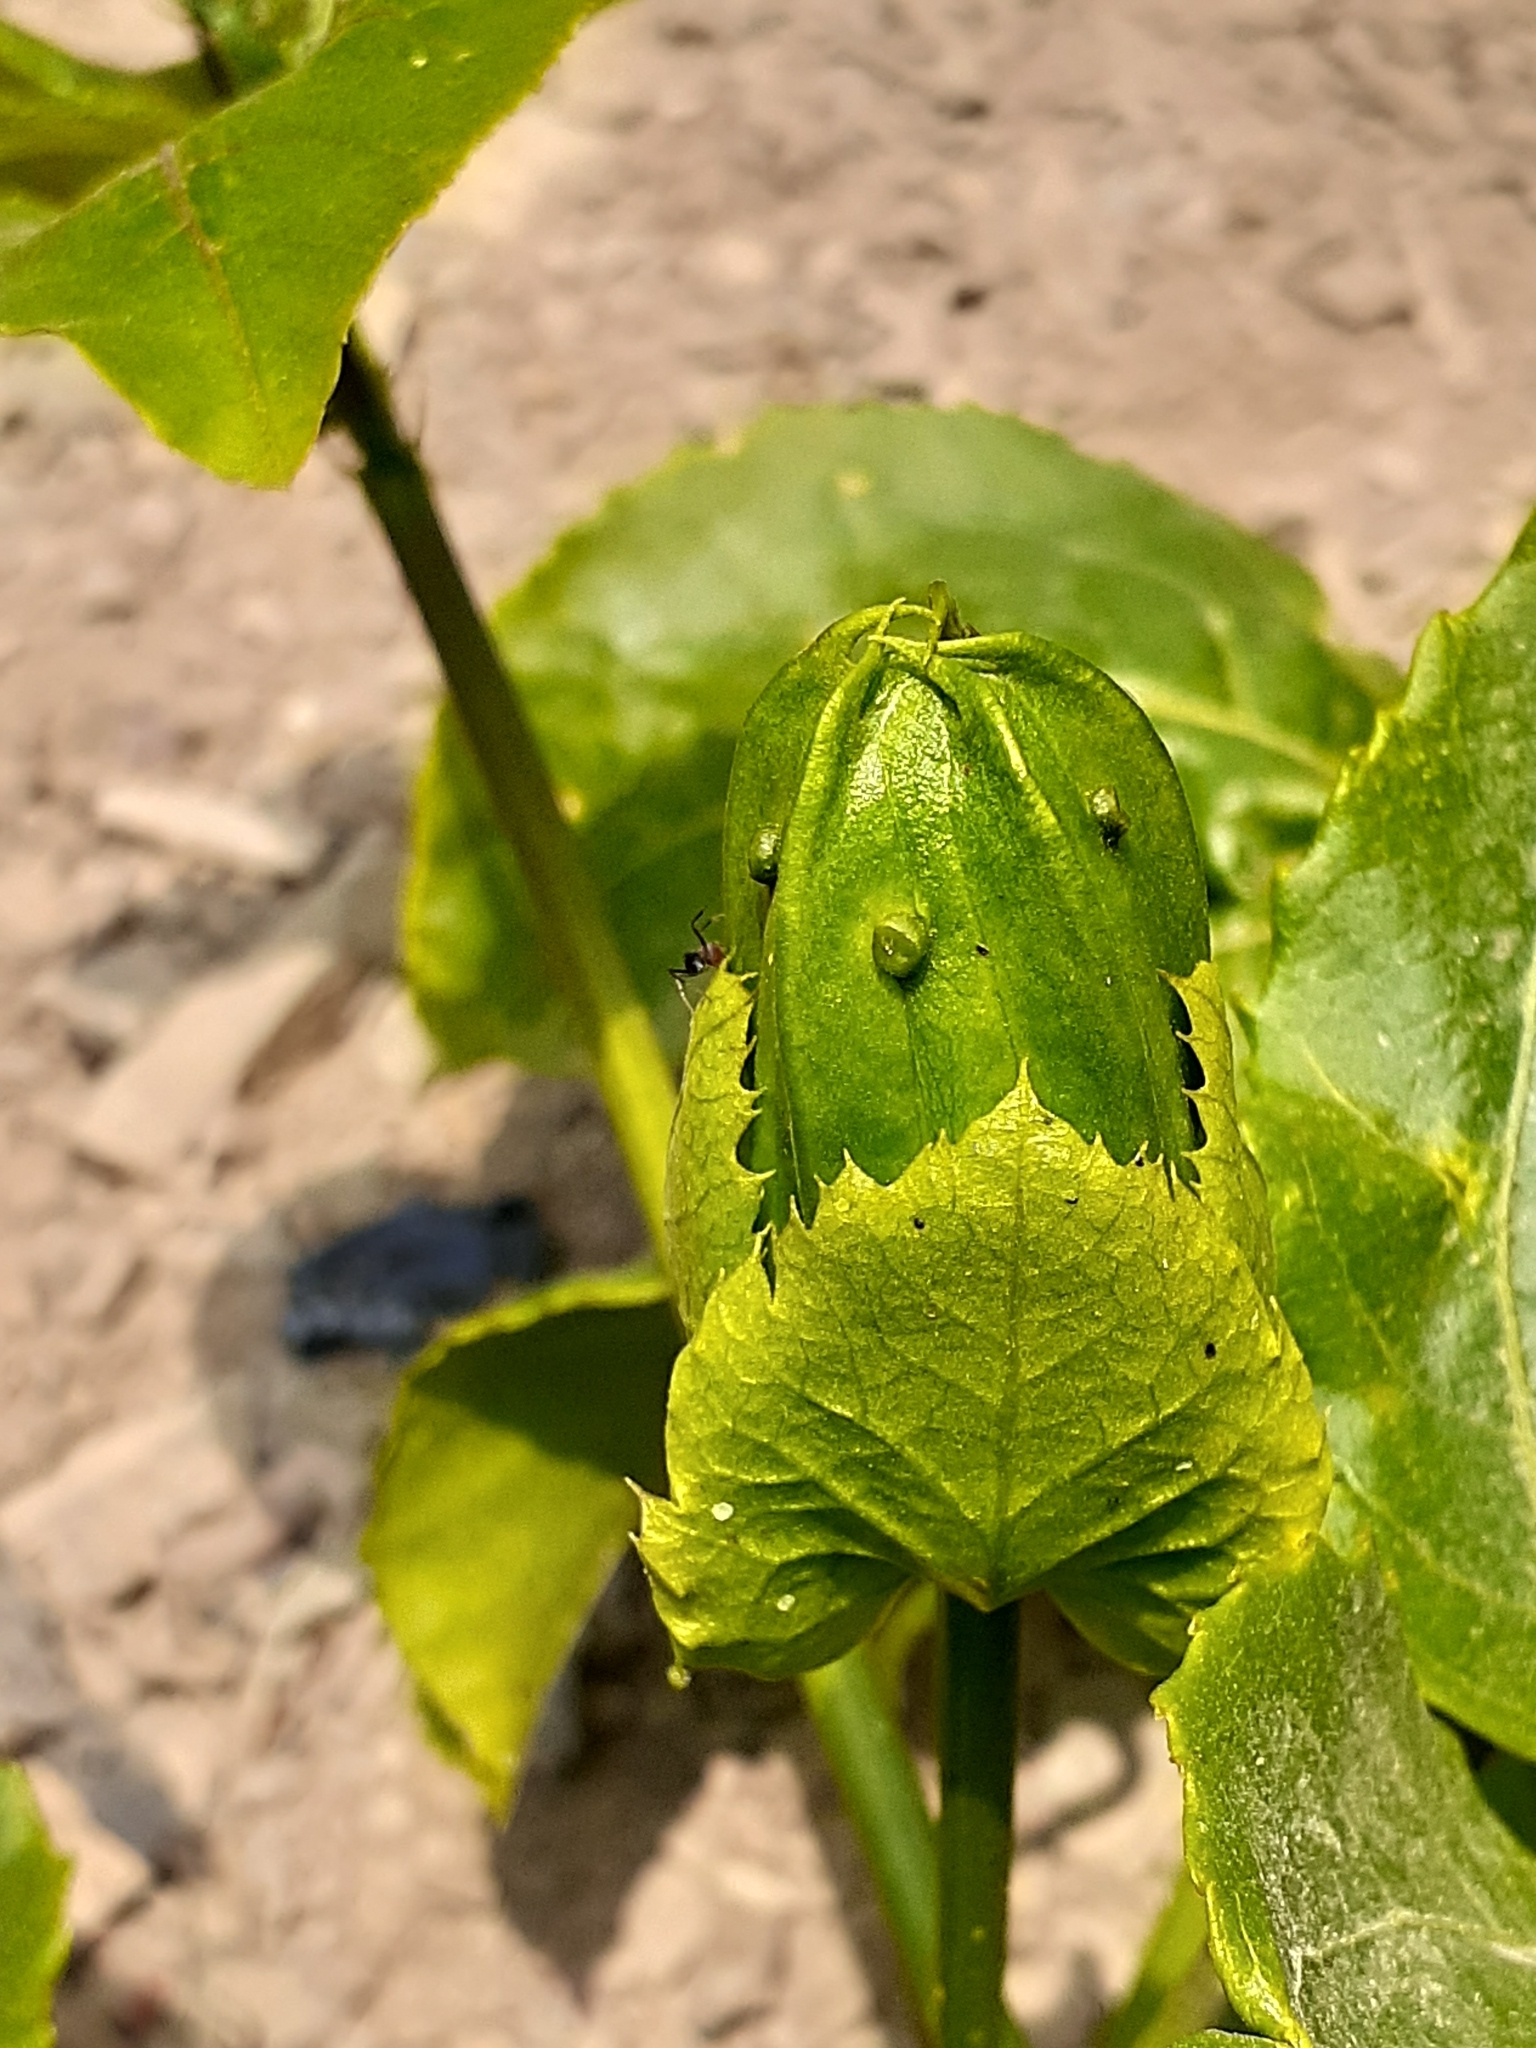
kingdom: Plantae
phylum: Tracheophyta
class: Magnoliopsida
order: Malpighiales
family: Passifloraceae
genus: Passiflora
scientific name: Passiflora edulis
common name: Purple granadilla
